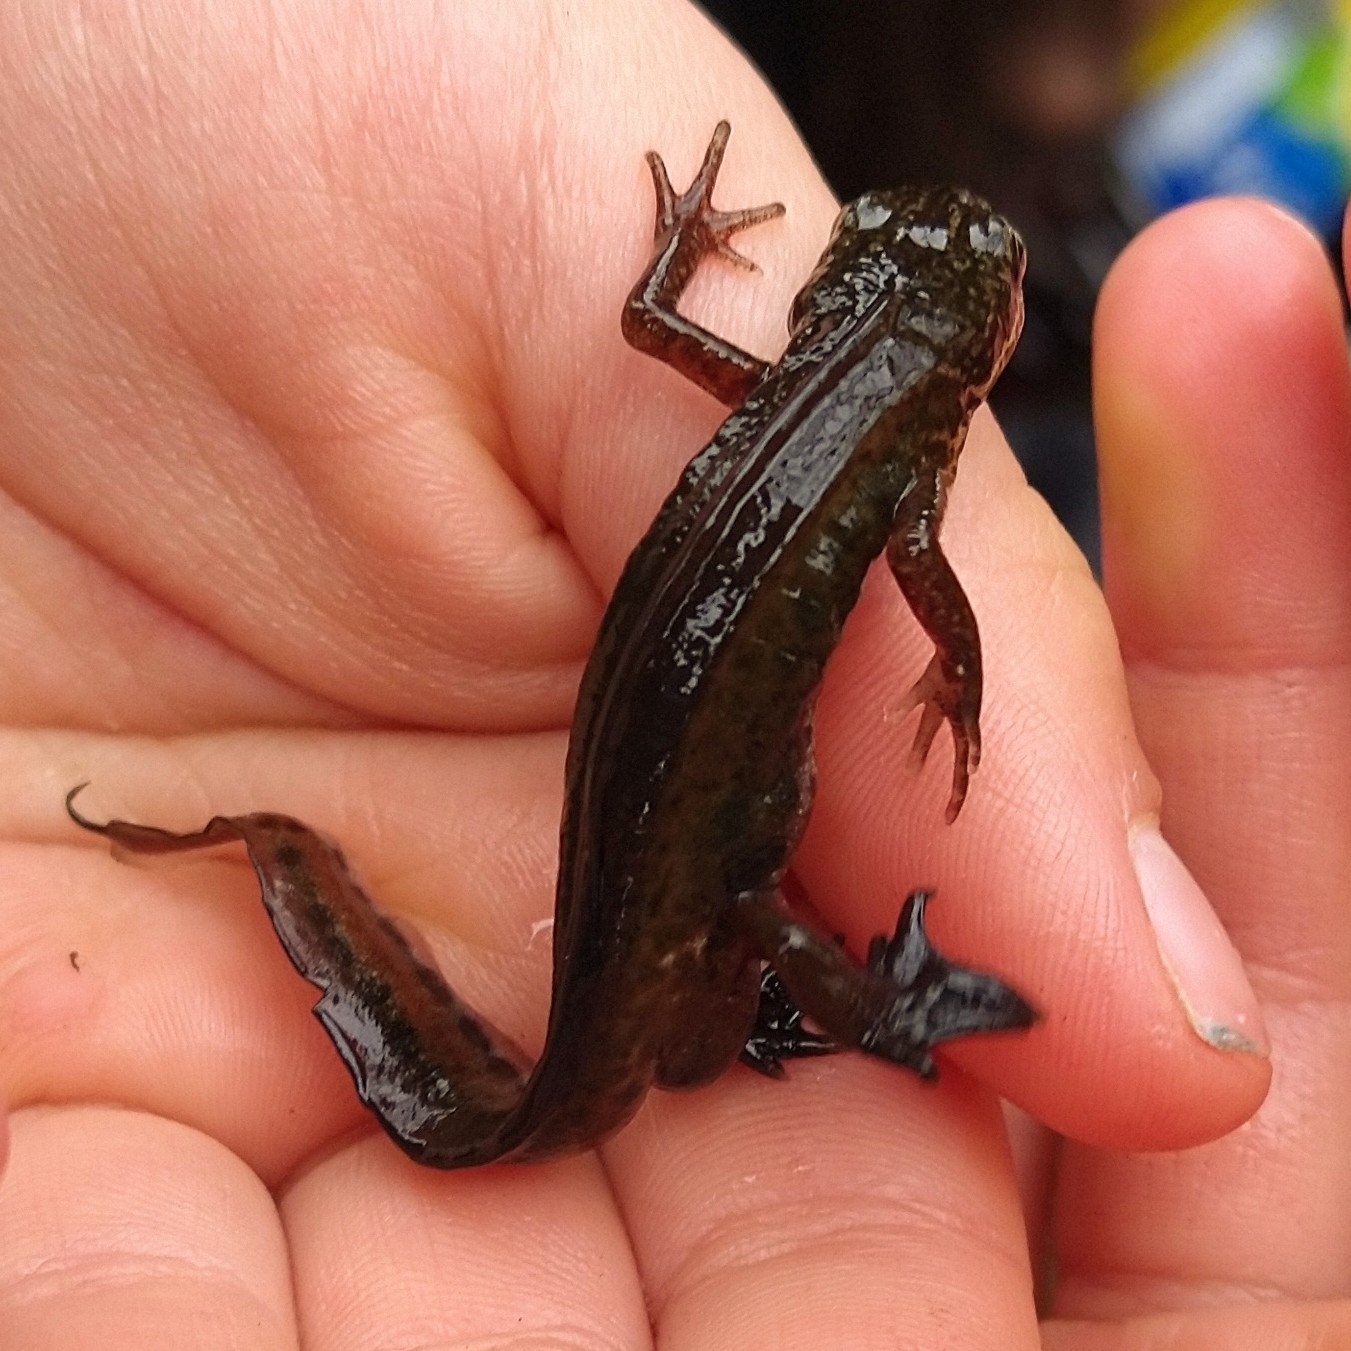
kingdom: Animalia
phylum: Chordata
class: Amphibia
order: Caudata
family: Salamandridae
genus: Lissotriton
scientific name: Lissotriton helveticus
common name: Palmate newt
